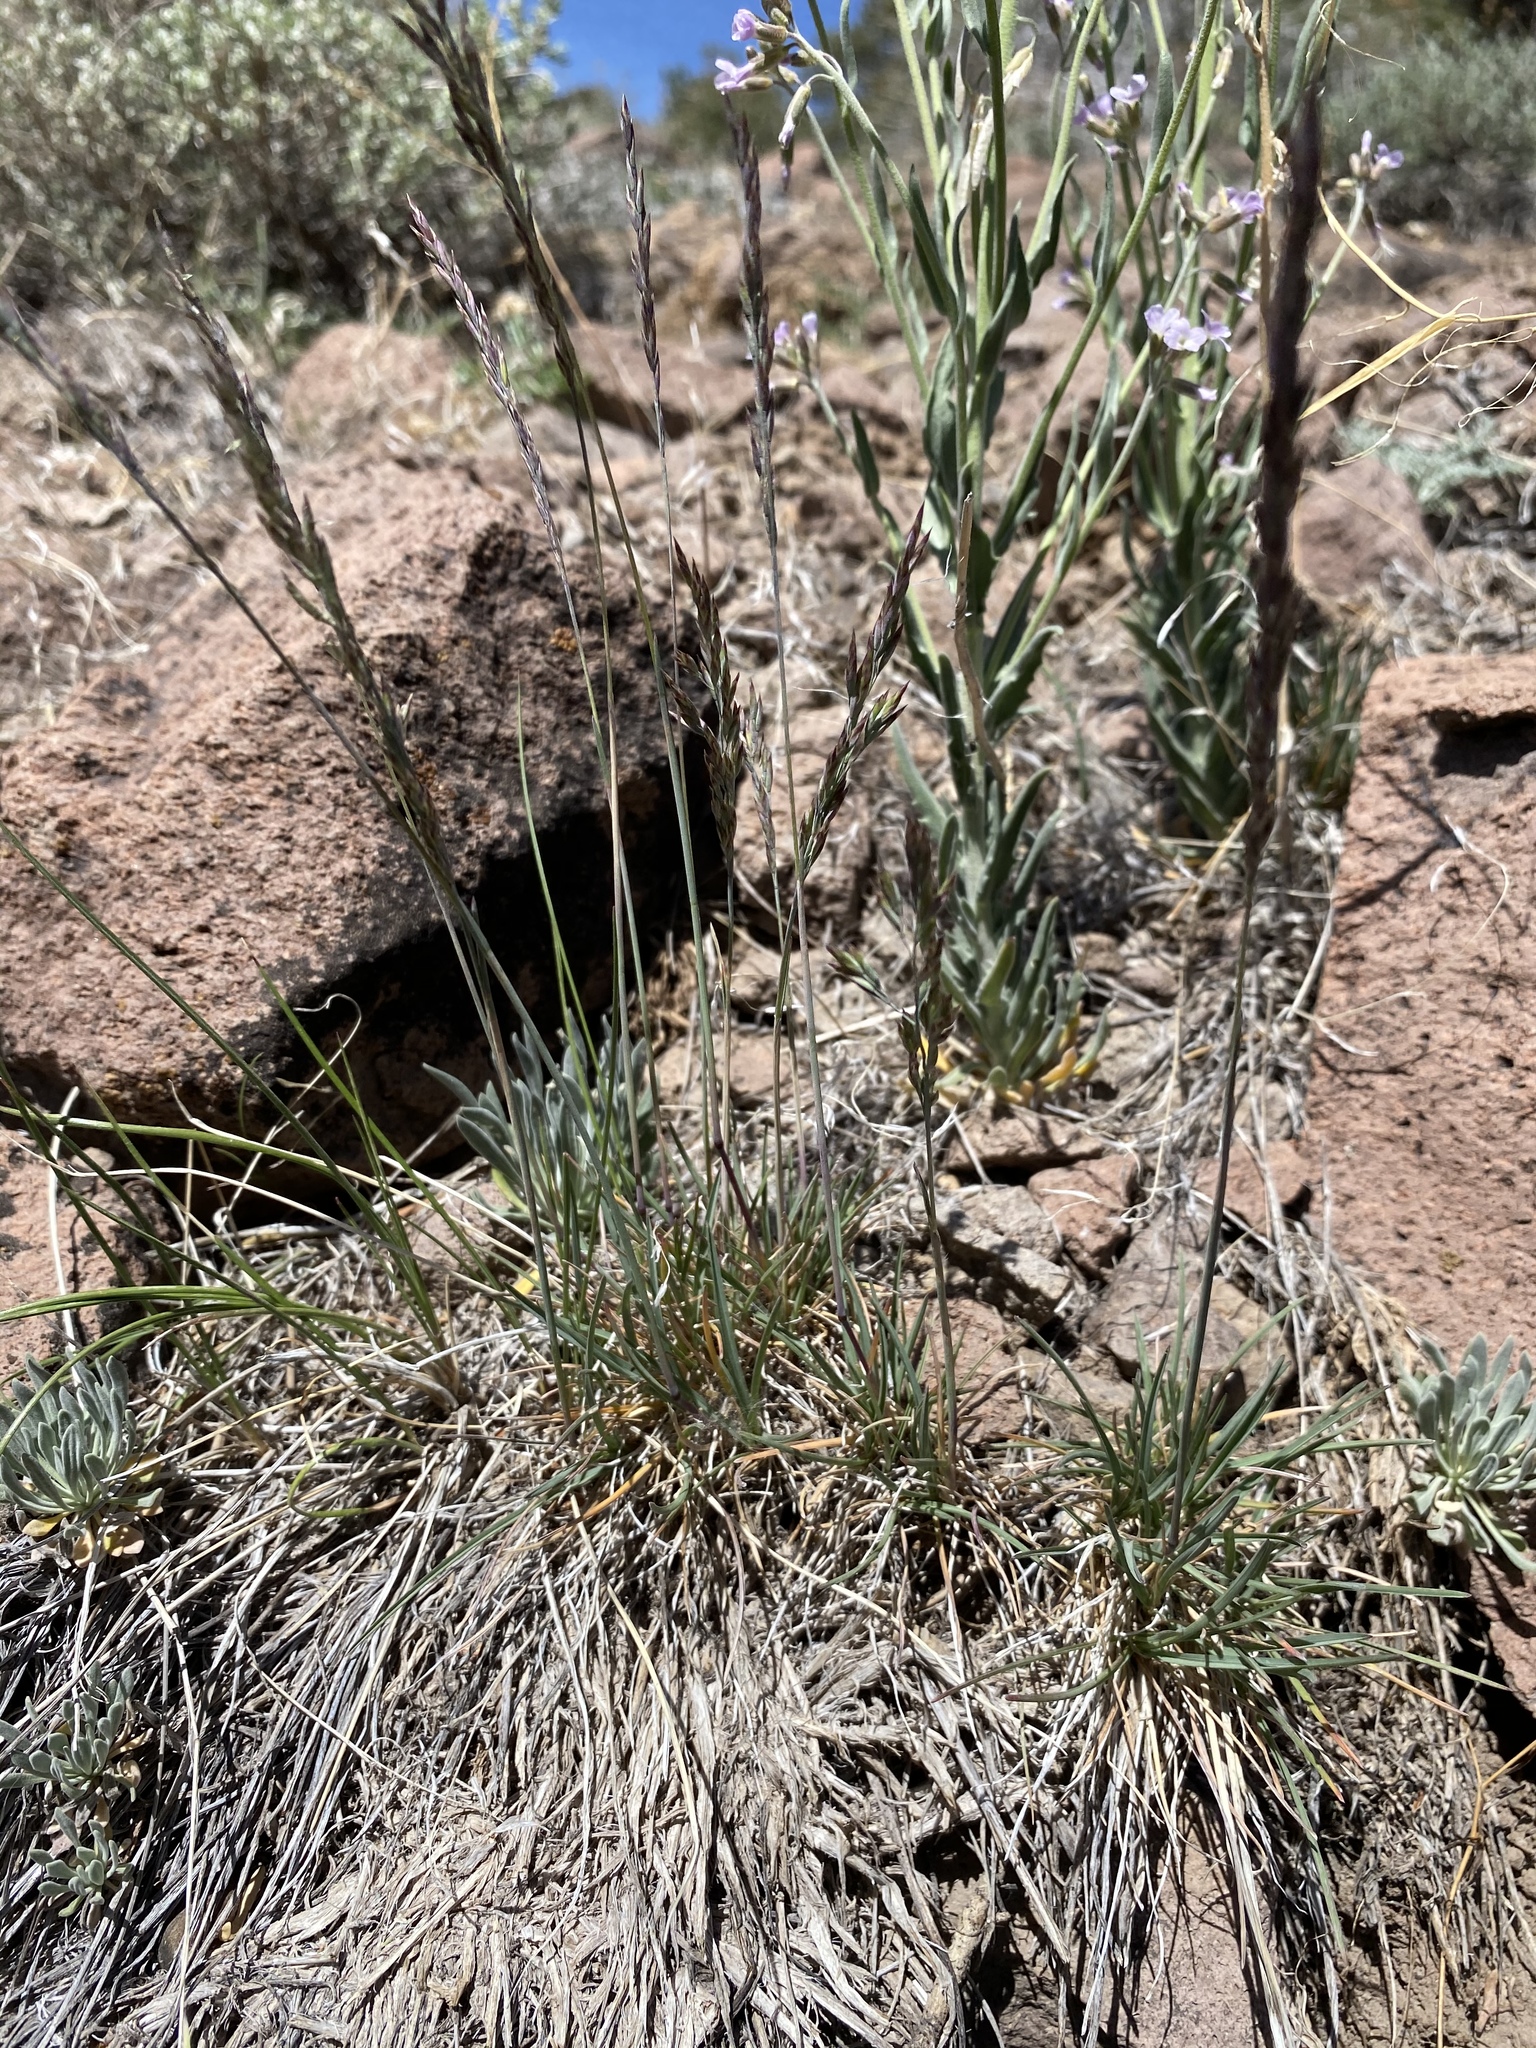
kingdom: Plantae
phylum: Tracheophyta
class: Liliopsida
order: Poales
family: Poaceae
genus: Poa
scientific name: Poa secunda
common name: Sandberg bluegrass
